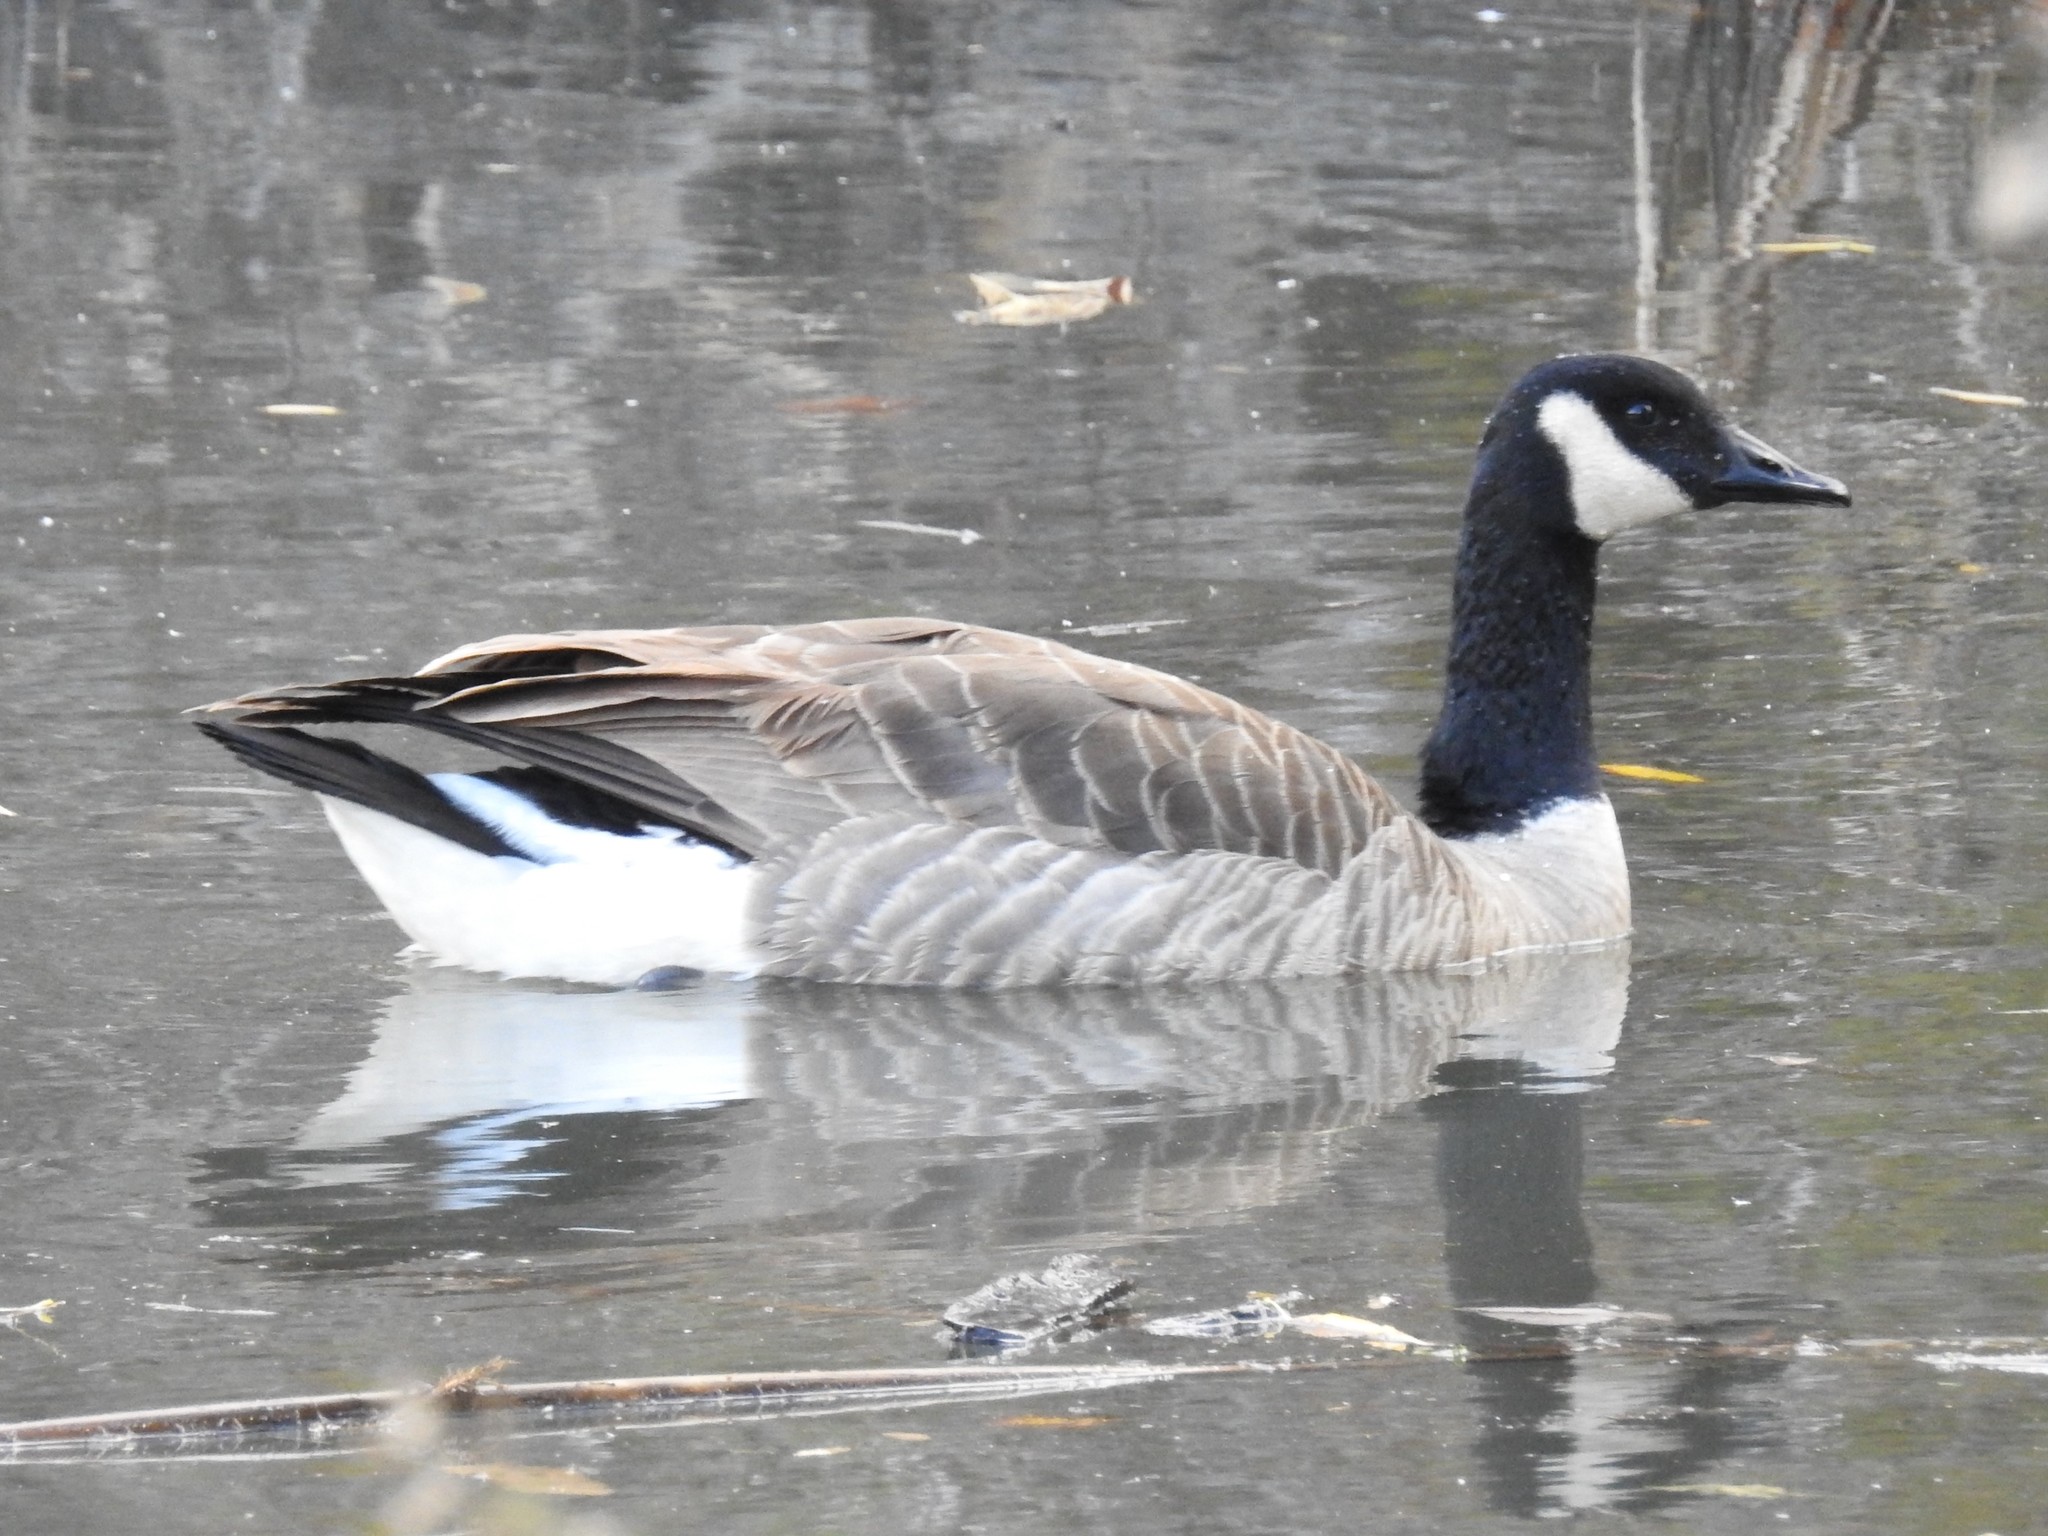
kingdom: Animalia
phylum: Chordata
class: Aves
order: Anseriformes
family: Anatidae
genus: Branta
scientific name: Branta canadensis
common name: Canada goose
